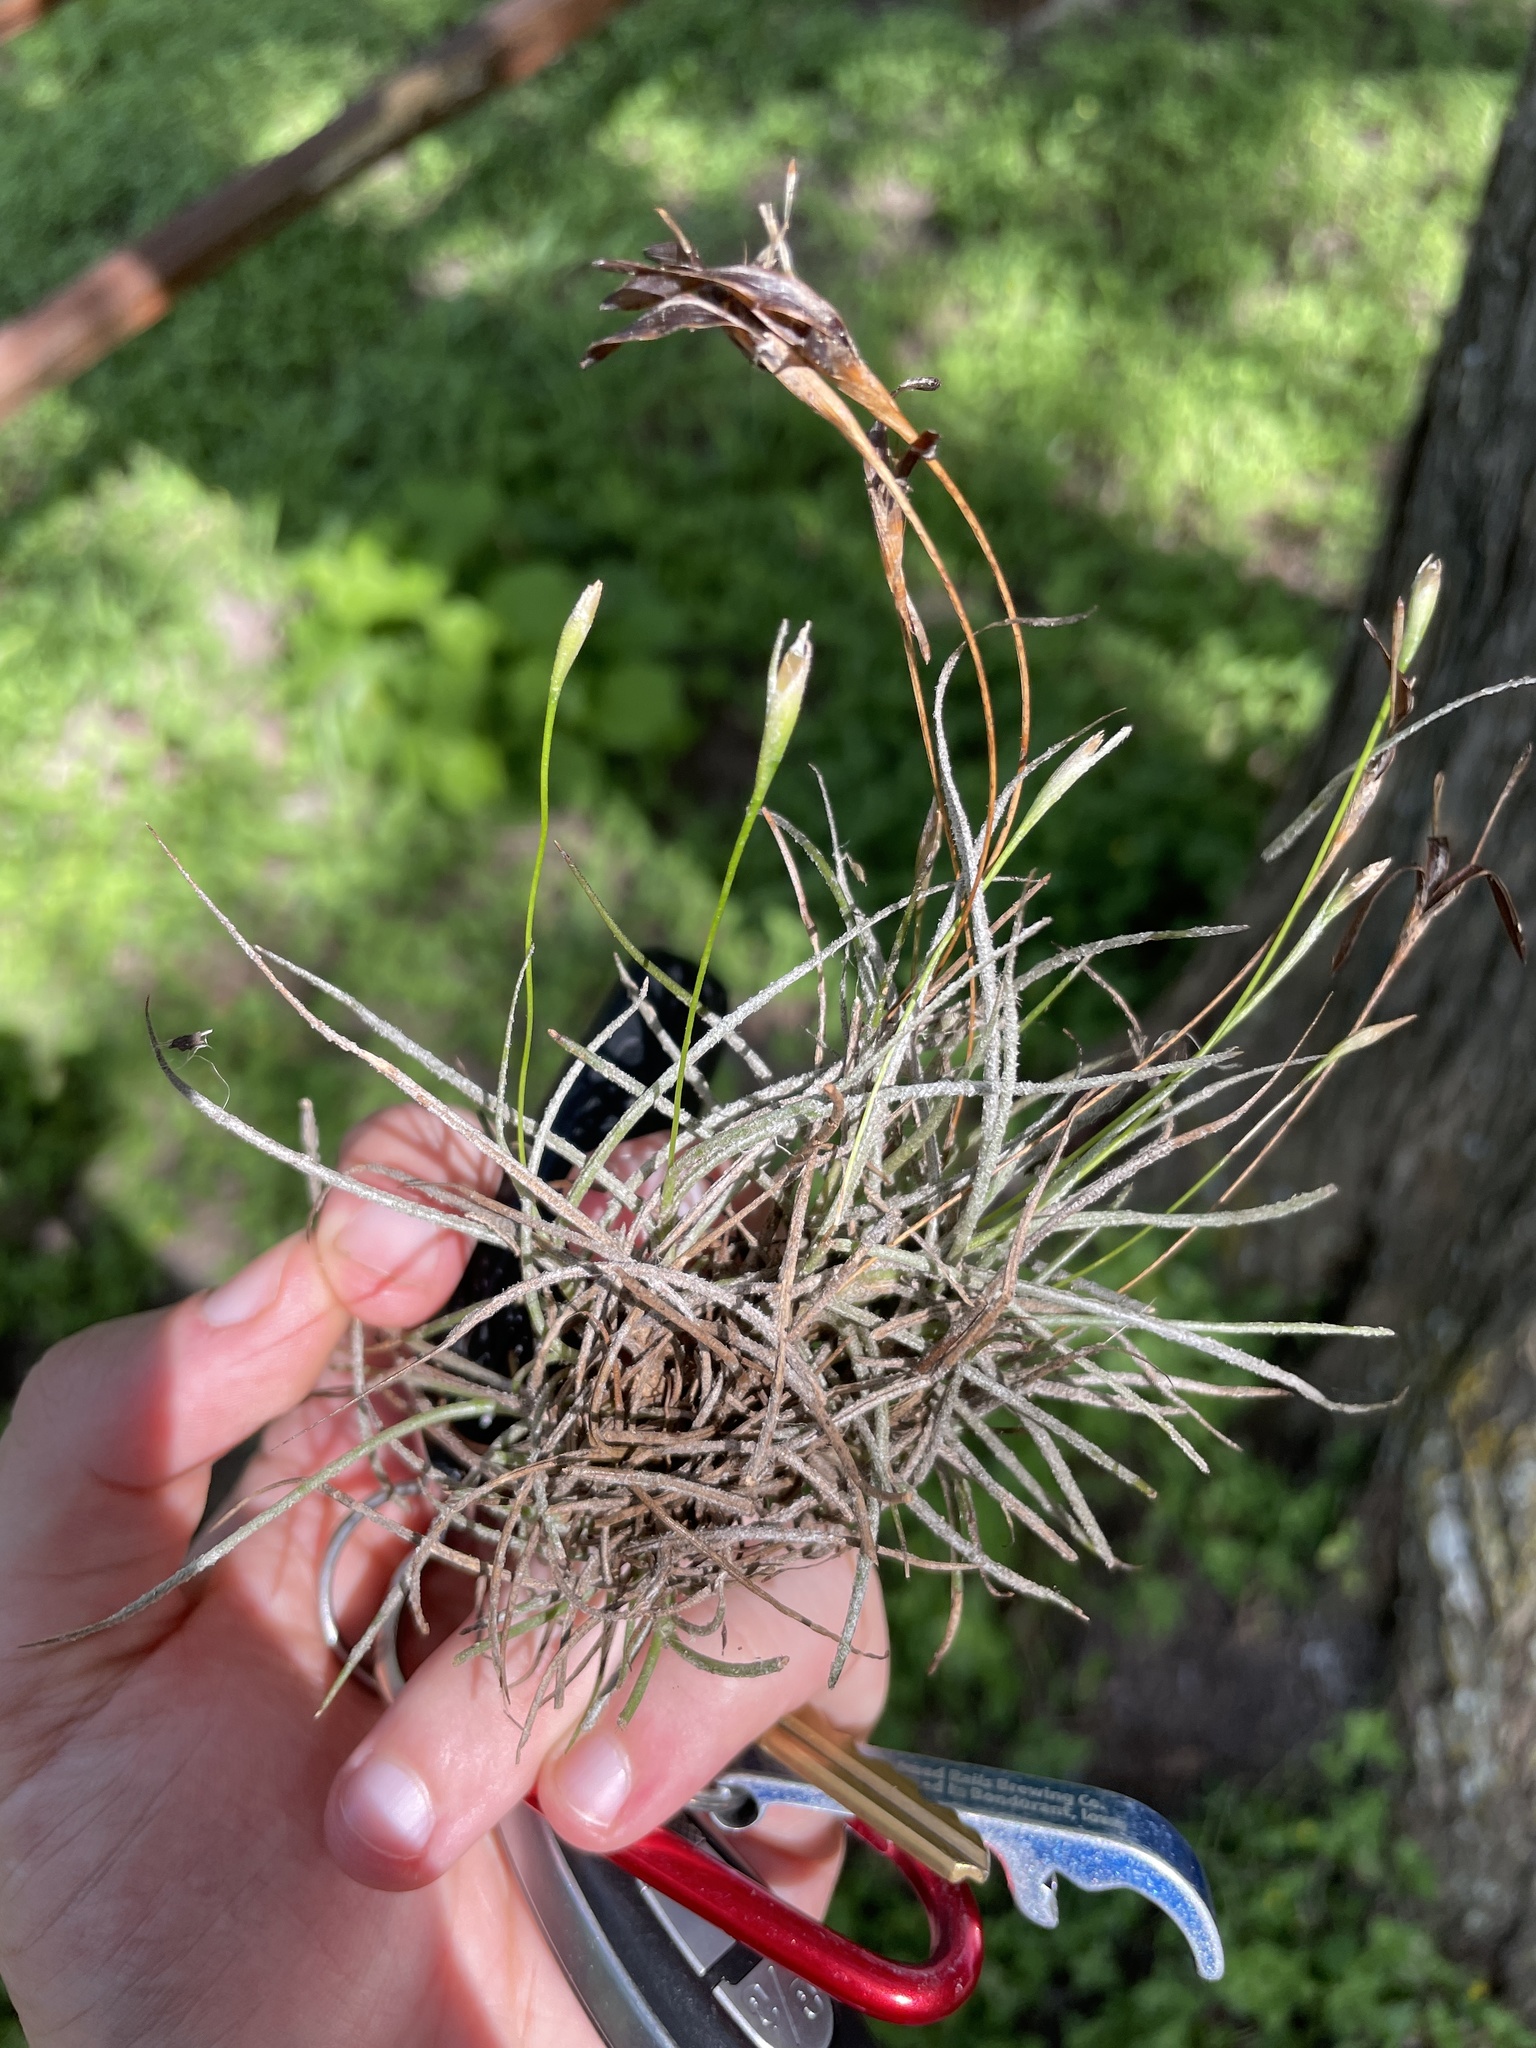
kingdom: Plantae
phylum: Tracheophyta
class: Liliopsida
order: Poales
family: Bromeliaceae
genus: Tillandsia
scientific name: Tillandsia recurvata
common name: Small ballmoss
